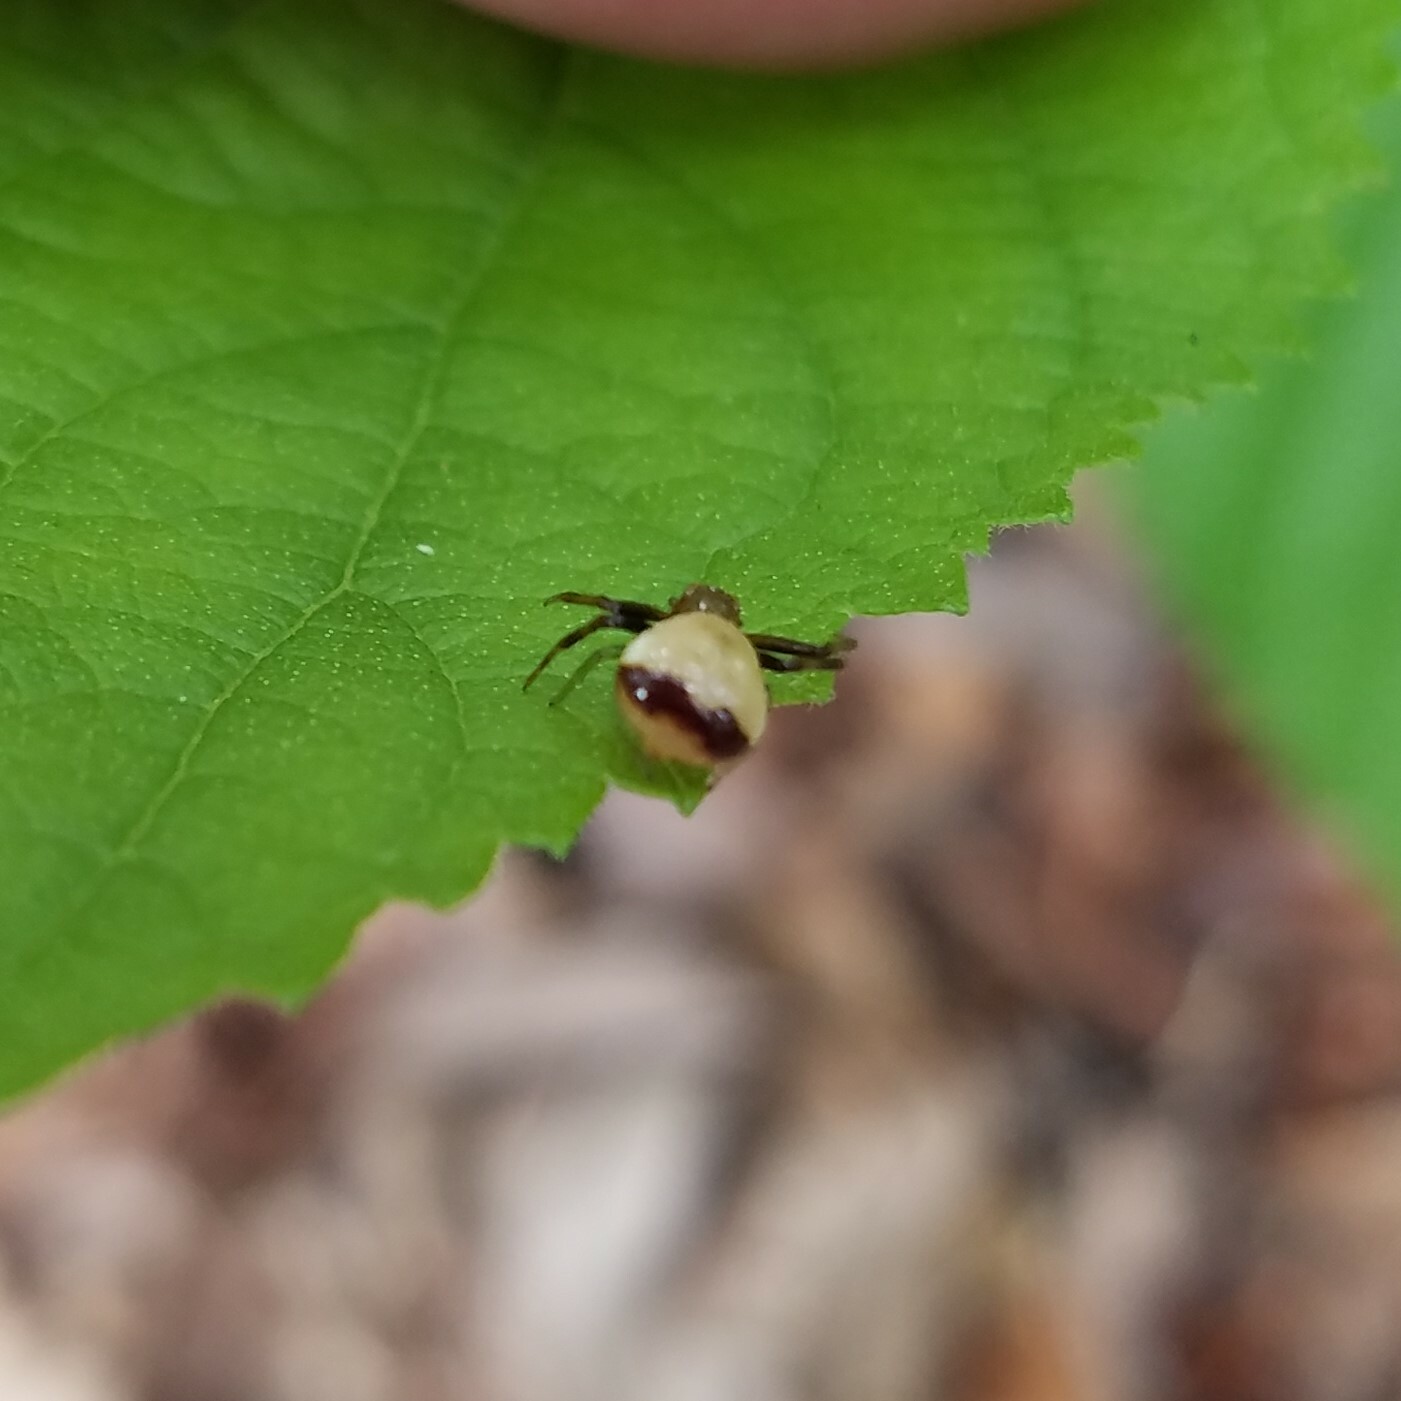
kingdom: Animalia
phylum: Arthropoda
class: Arachnida
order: Araneae
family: Thomisidae
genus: Synema
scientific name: Synema parvulum
